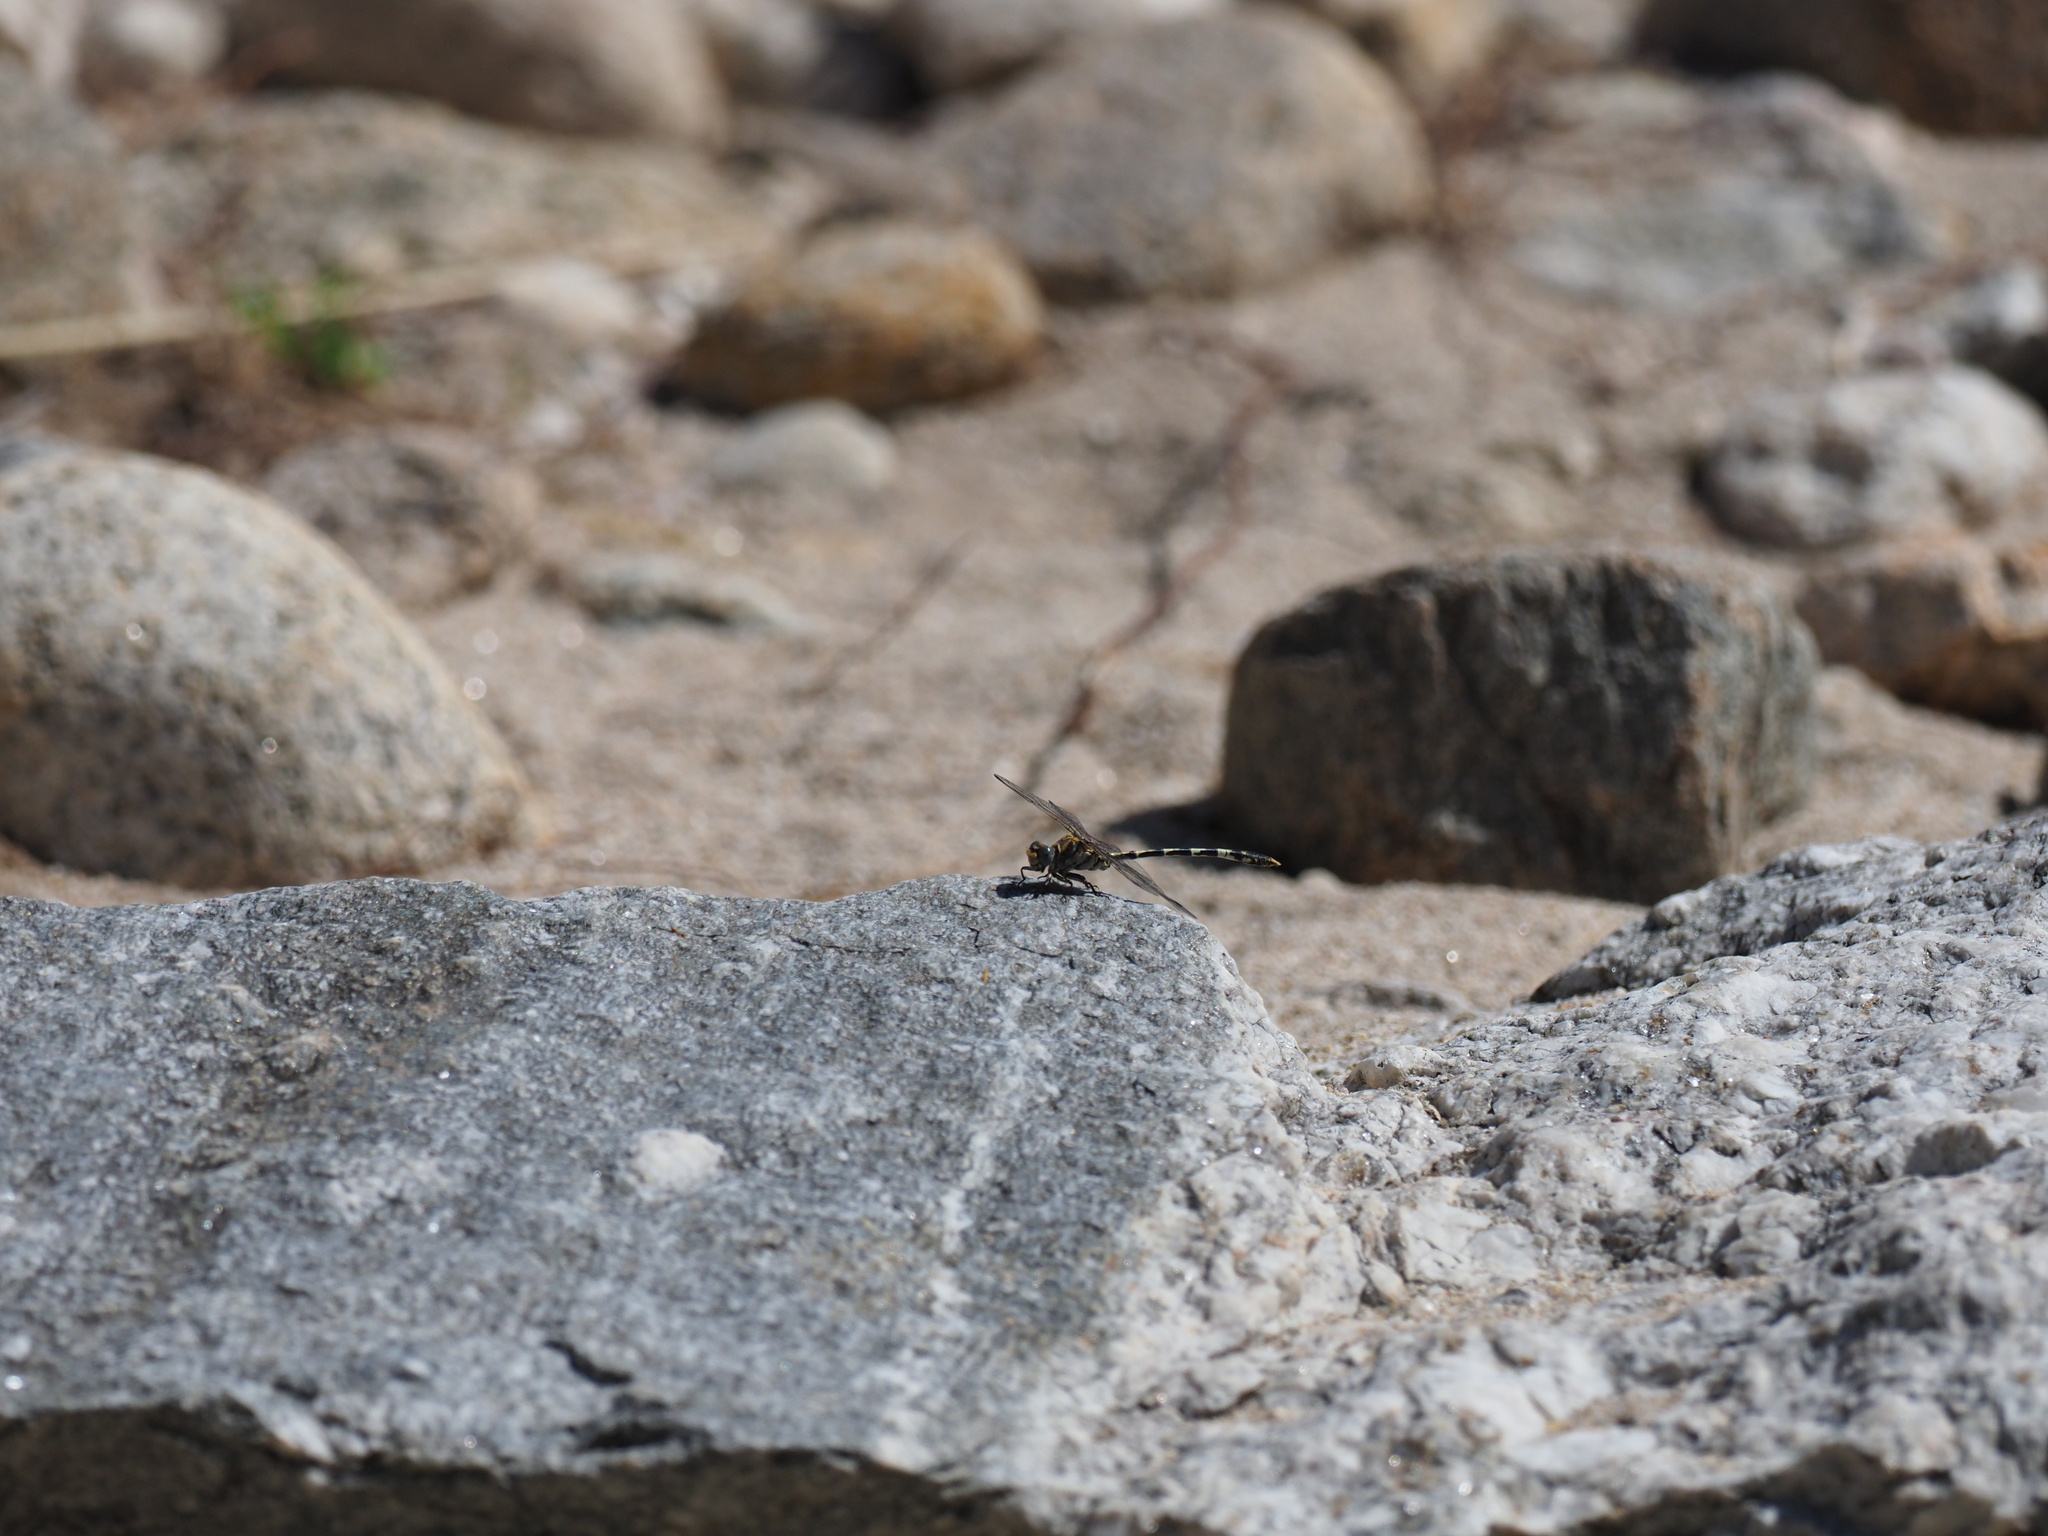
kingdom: Animalia
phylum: Arthropoda
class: Insecta
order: Odonata
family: Gomphidae
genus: Progomphus
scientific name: Progomphus borealis
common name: Gray sanddragon
